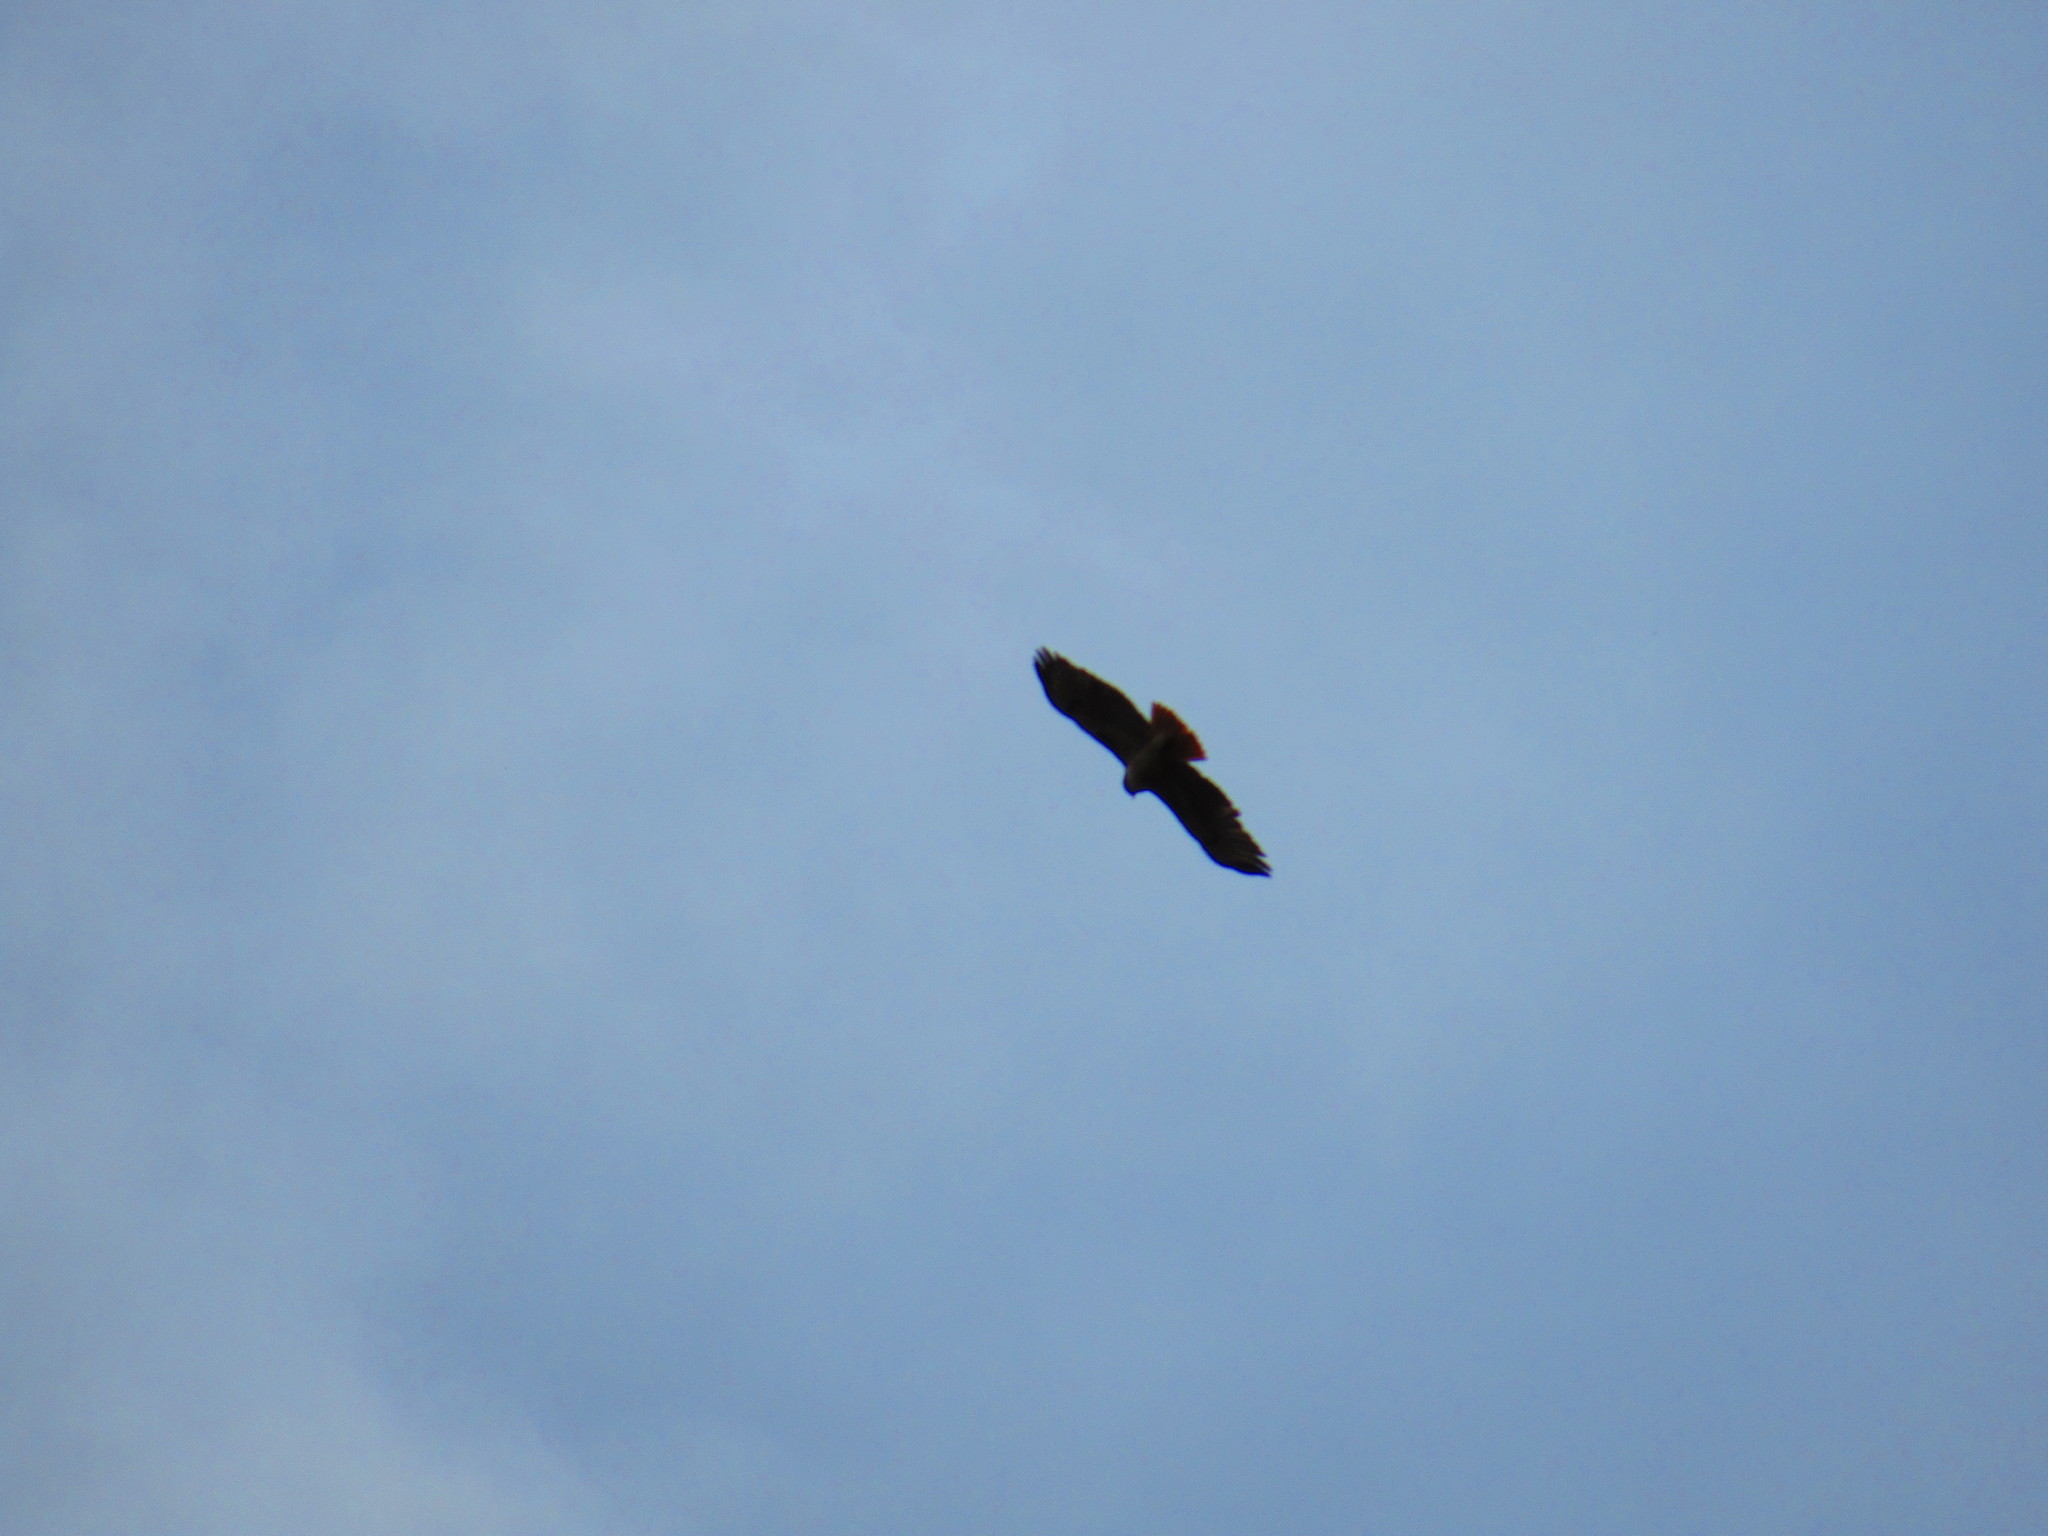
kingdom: Animalia
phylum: Chordata
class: Aves
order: Accipitriformes
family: Accipitridae
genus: Buteo
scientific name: Buteo jamaicensis
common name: Red-tailed hawk
